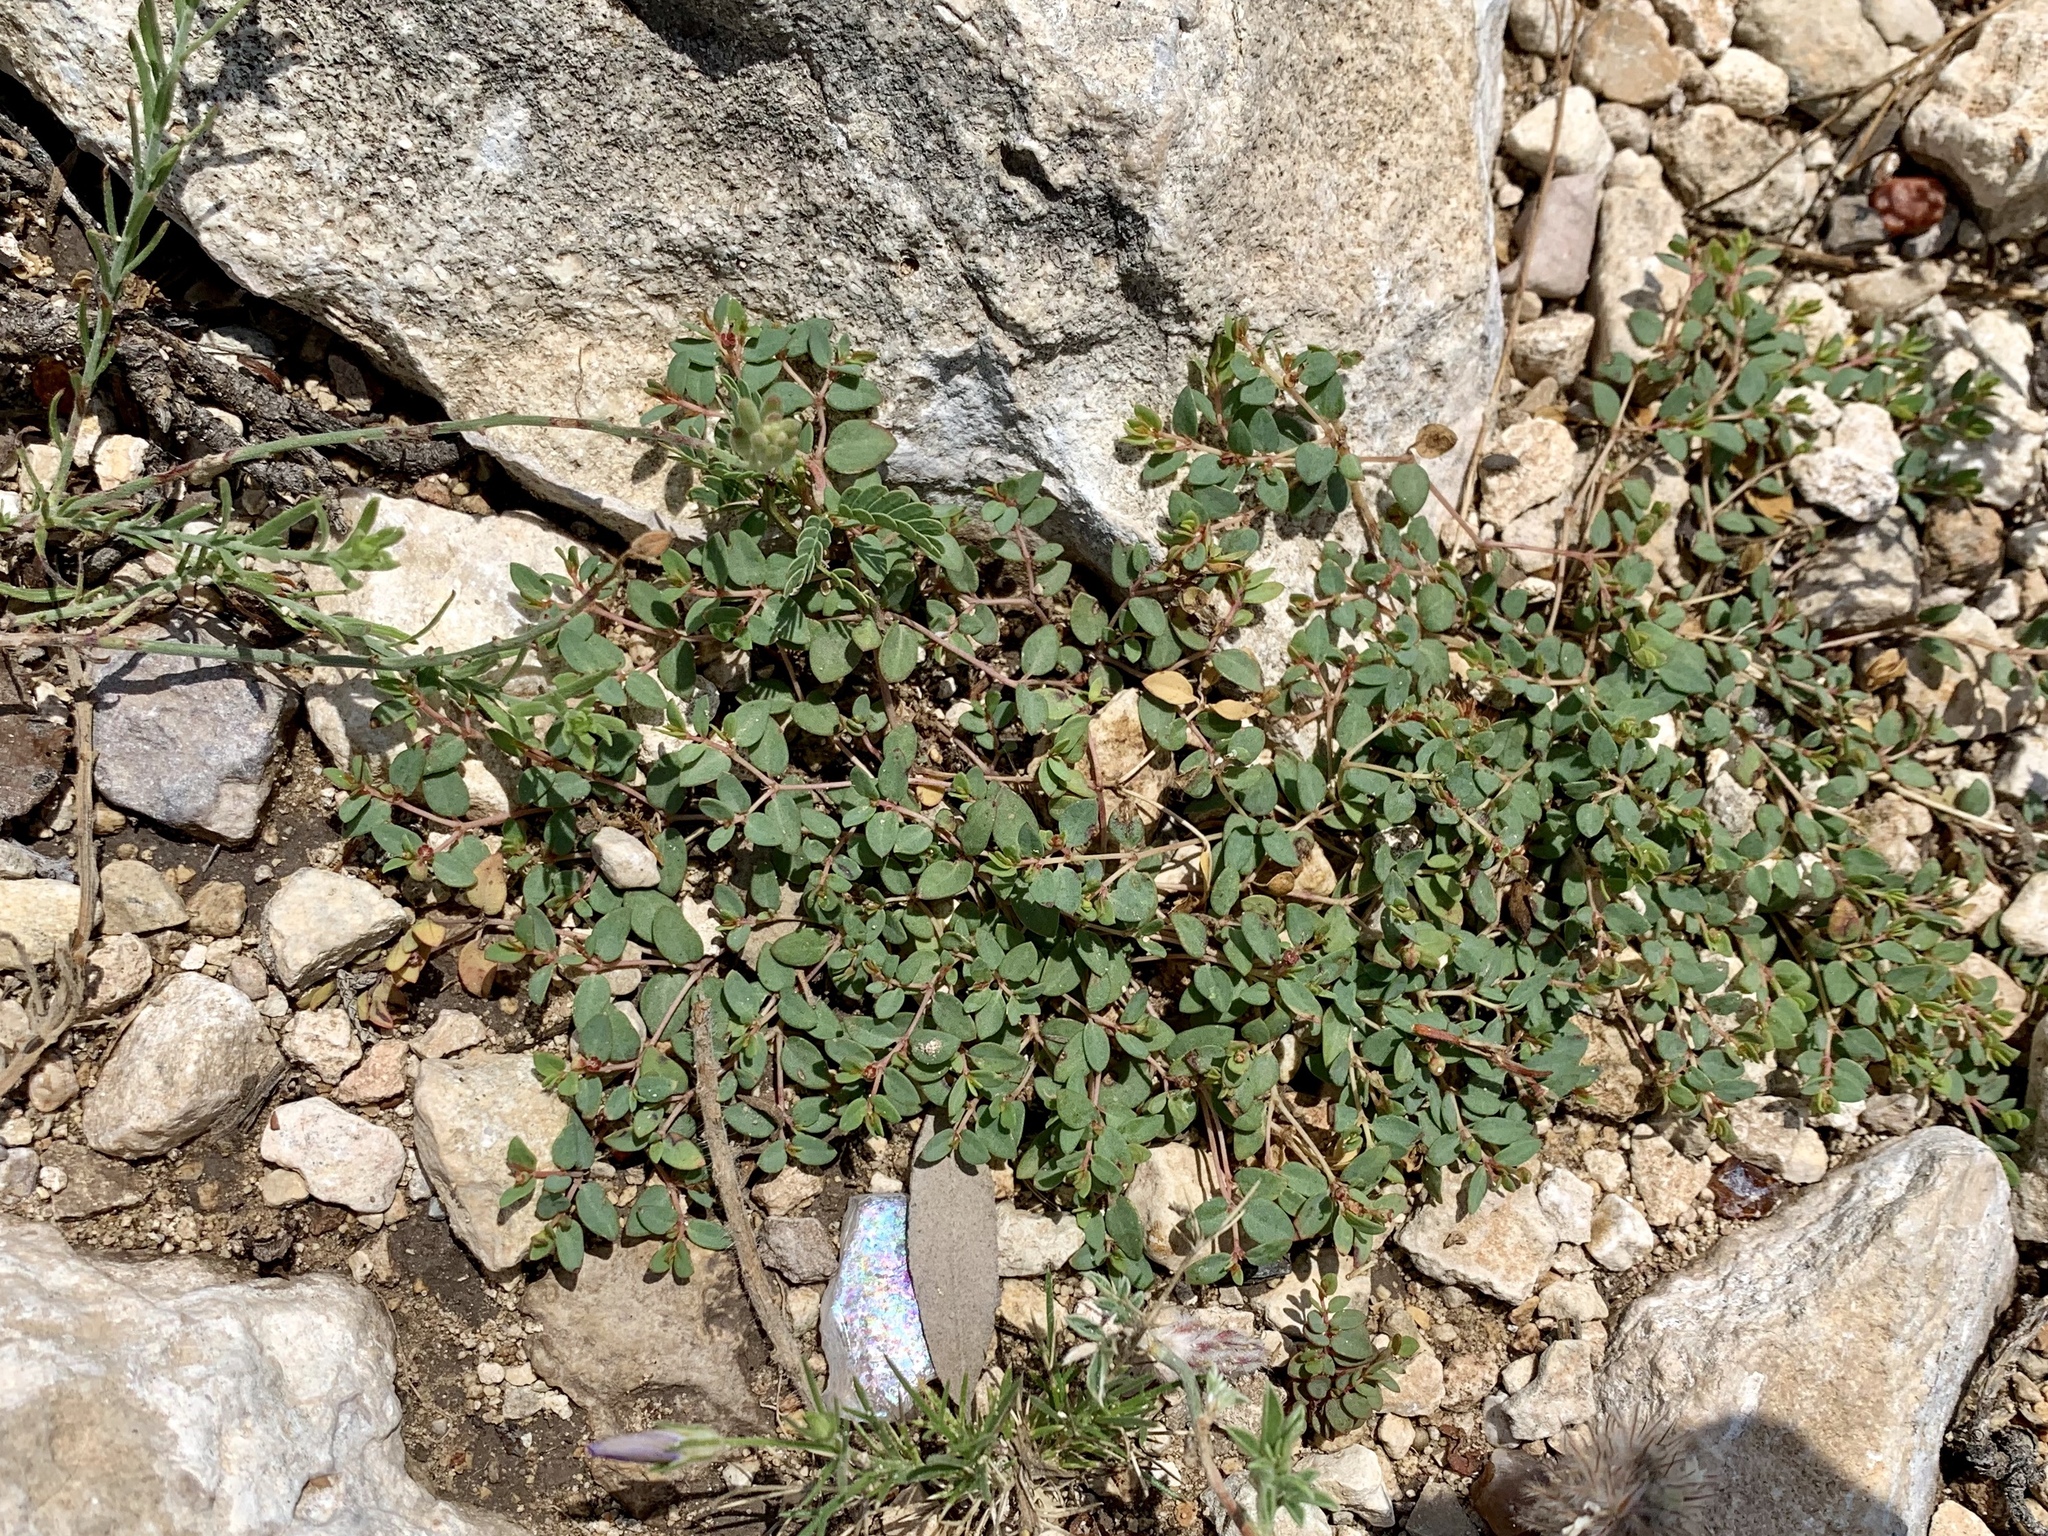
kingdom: Plantae
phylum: Tracheophyta
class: Magnoliopsida
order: Malpighiales
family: Euphorbiaceae
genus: Euphorbia
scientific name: Euphorbia fendleri
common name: Fendler's euphorbia
